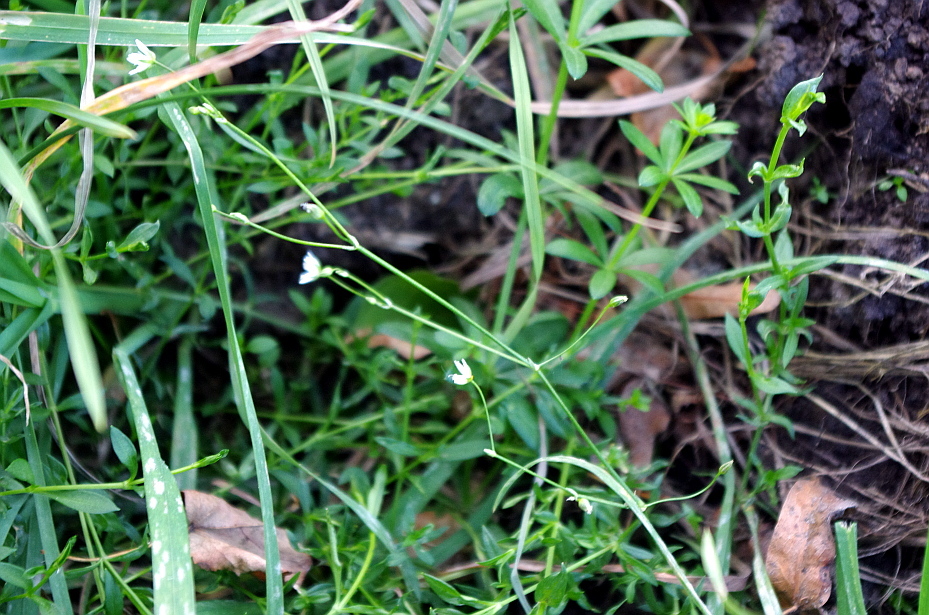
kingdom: Plantae
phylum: Tracheophyta
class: Magnoliopsida
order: Caryophyllales
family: Caryophyllaceae
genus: Stellaria
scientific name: Stellaria graminea
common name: Grass-like starwort
